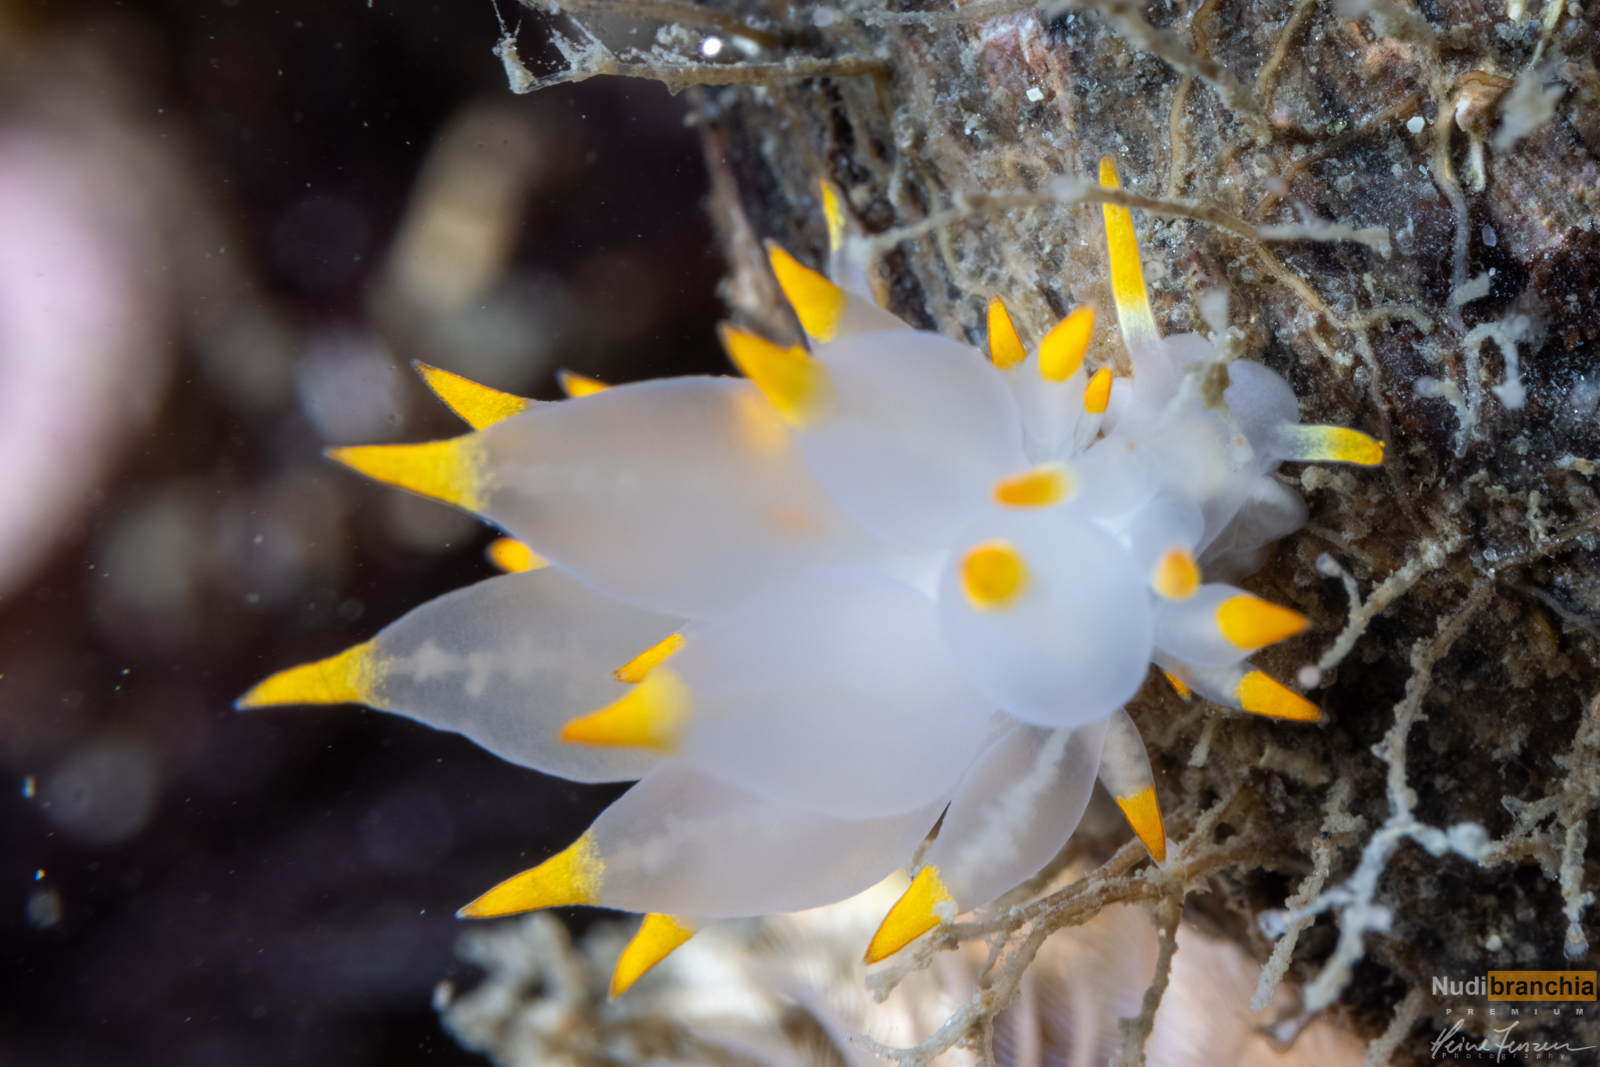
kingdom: Animalia
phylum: Mollusca
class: Gastropoda
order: Nudibranchia
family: Eubranchidae
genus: Amphorina
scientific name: Amphorina farrani
